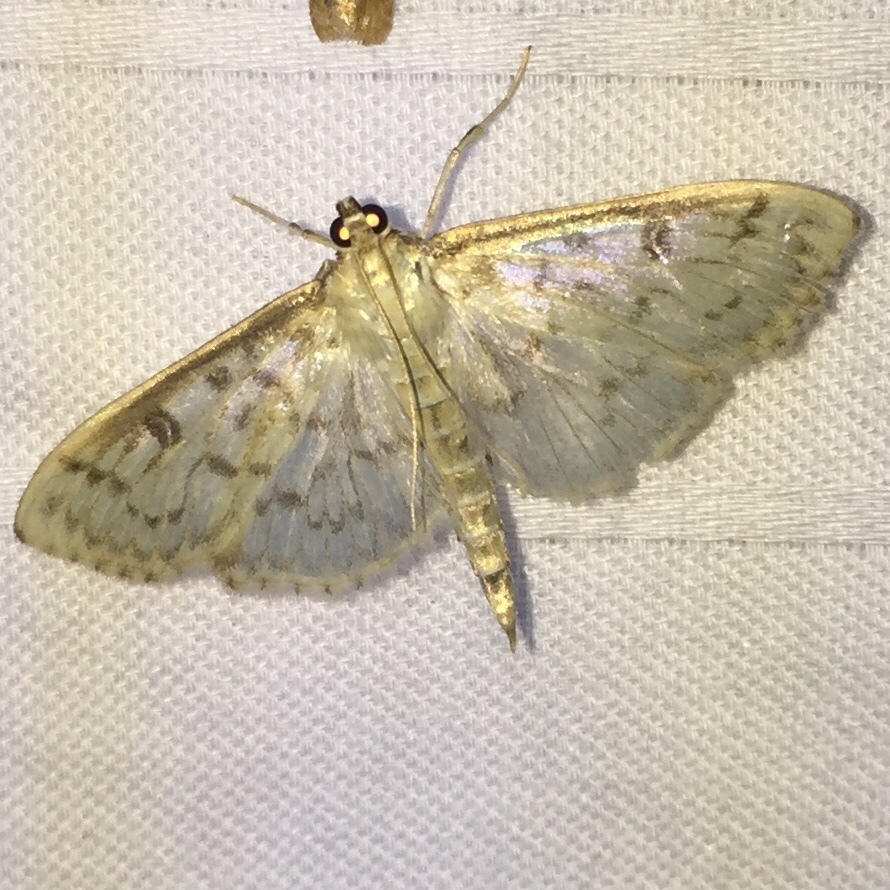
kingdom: Animalia
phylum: Arthropoda
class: Insecta
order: Lepidoptera
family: Crambidae
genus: Herpetogramma
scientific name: Herpetogramma pertextalis
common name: Bold-feathered grass moth
